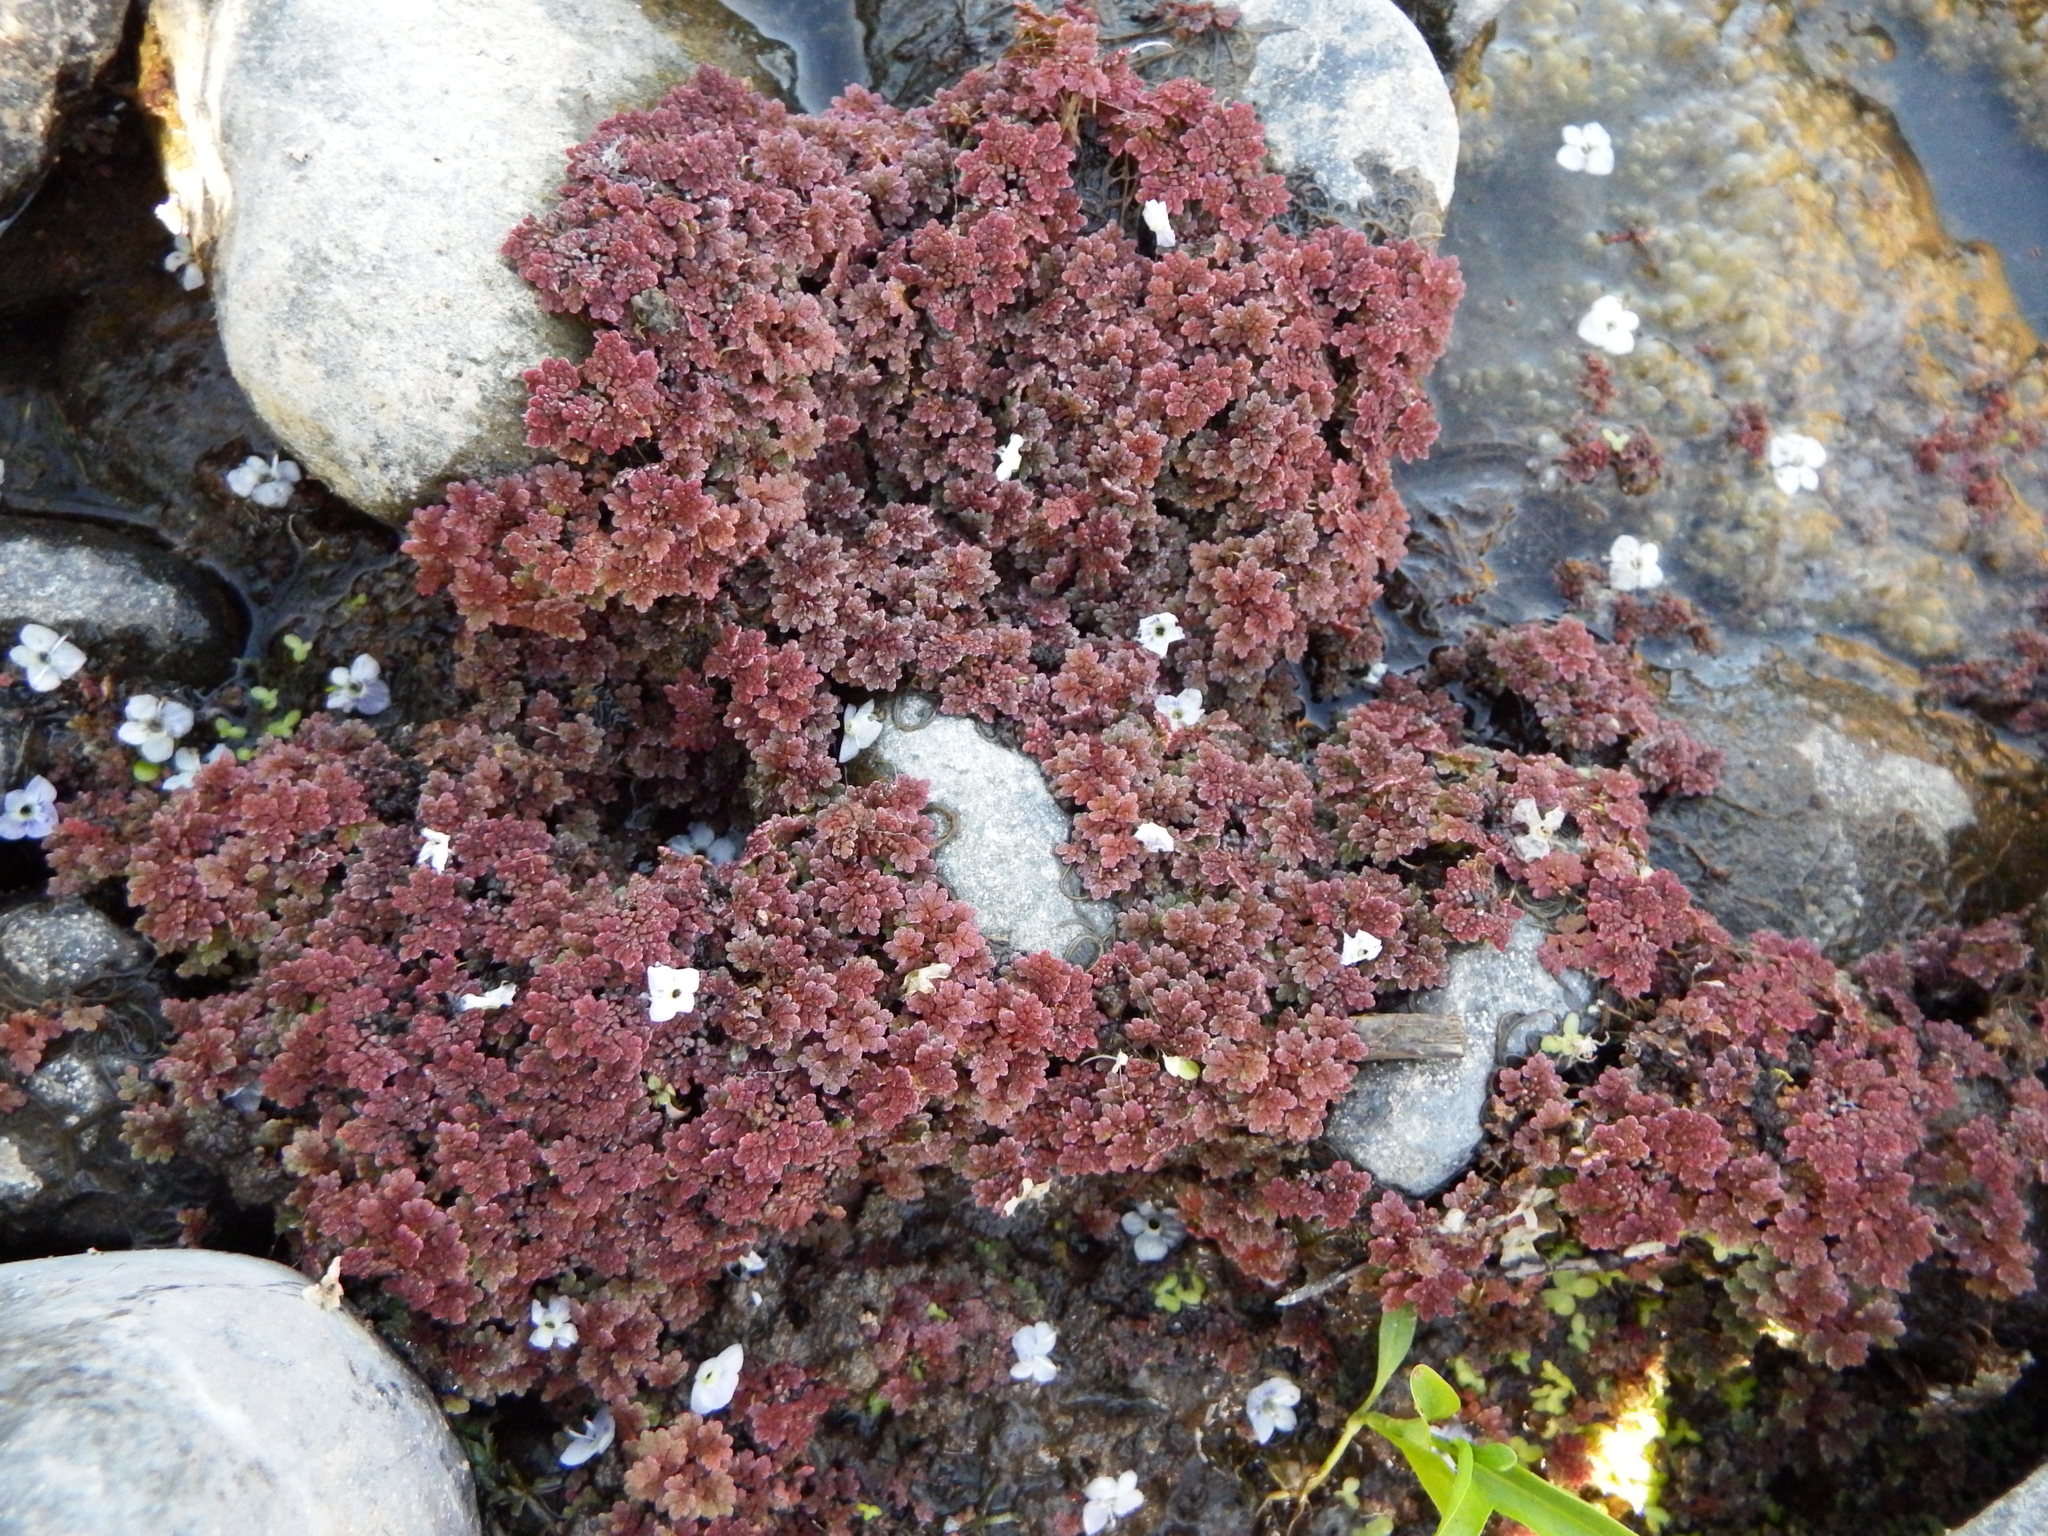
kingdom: Plantae
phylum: Tracheophyta
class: Polypodiopsida
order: Salviniales
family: Salviniaceae
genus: Azolla
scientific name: Azolla filiculoides
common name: Water fern
